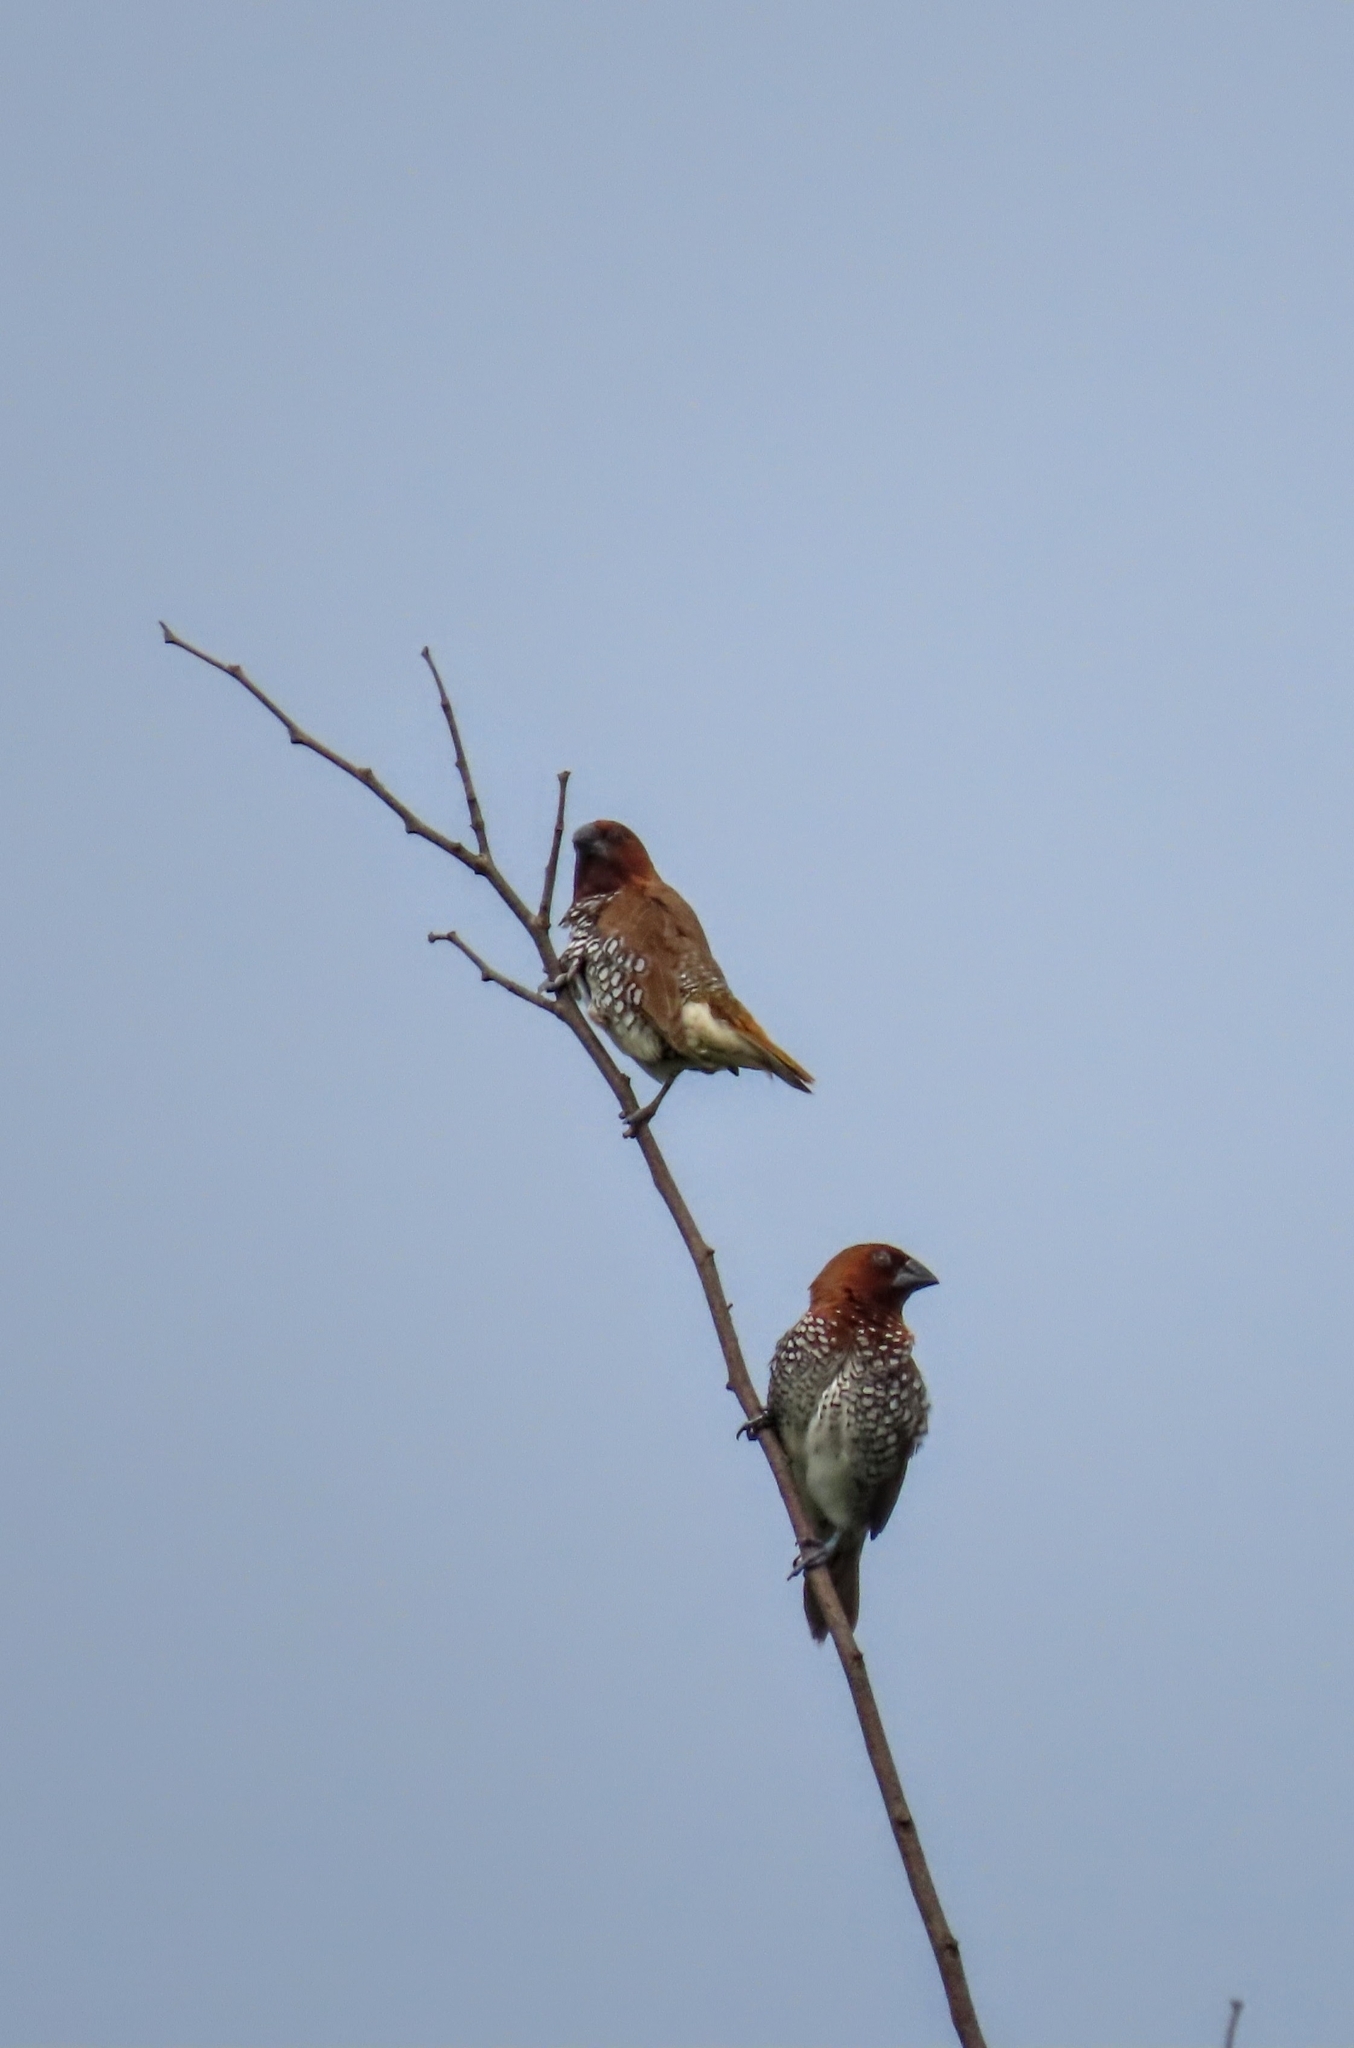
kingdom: Animalia
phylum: Chordata
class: Aves
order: Passeriformes
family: Estrildidae
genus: Lonchura
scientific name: Lonchura punctulata
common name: Scaly-breasted munia
